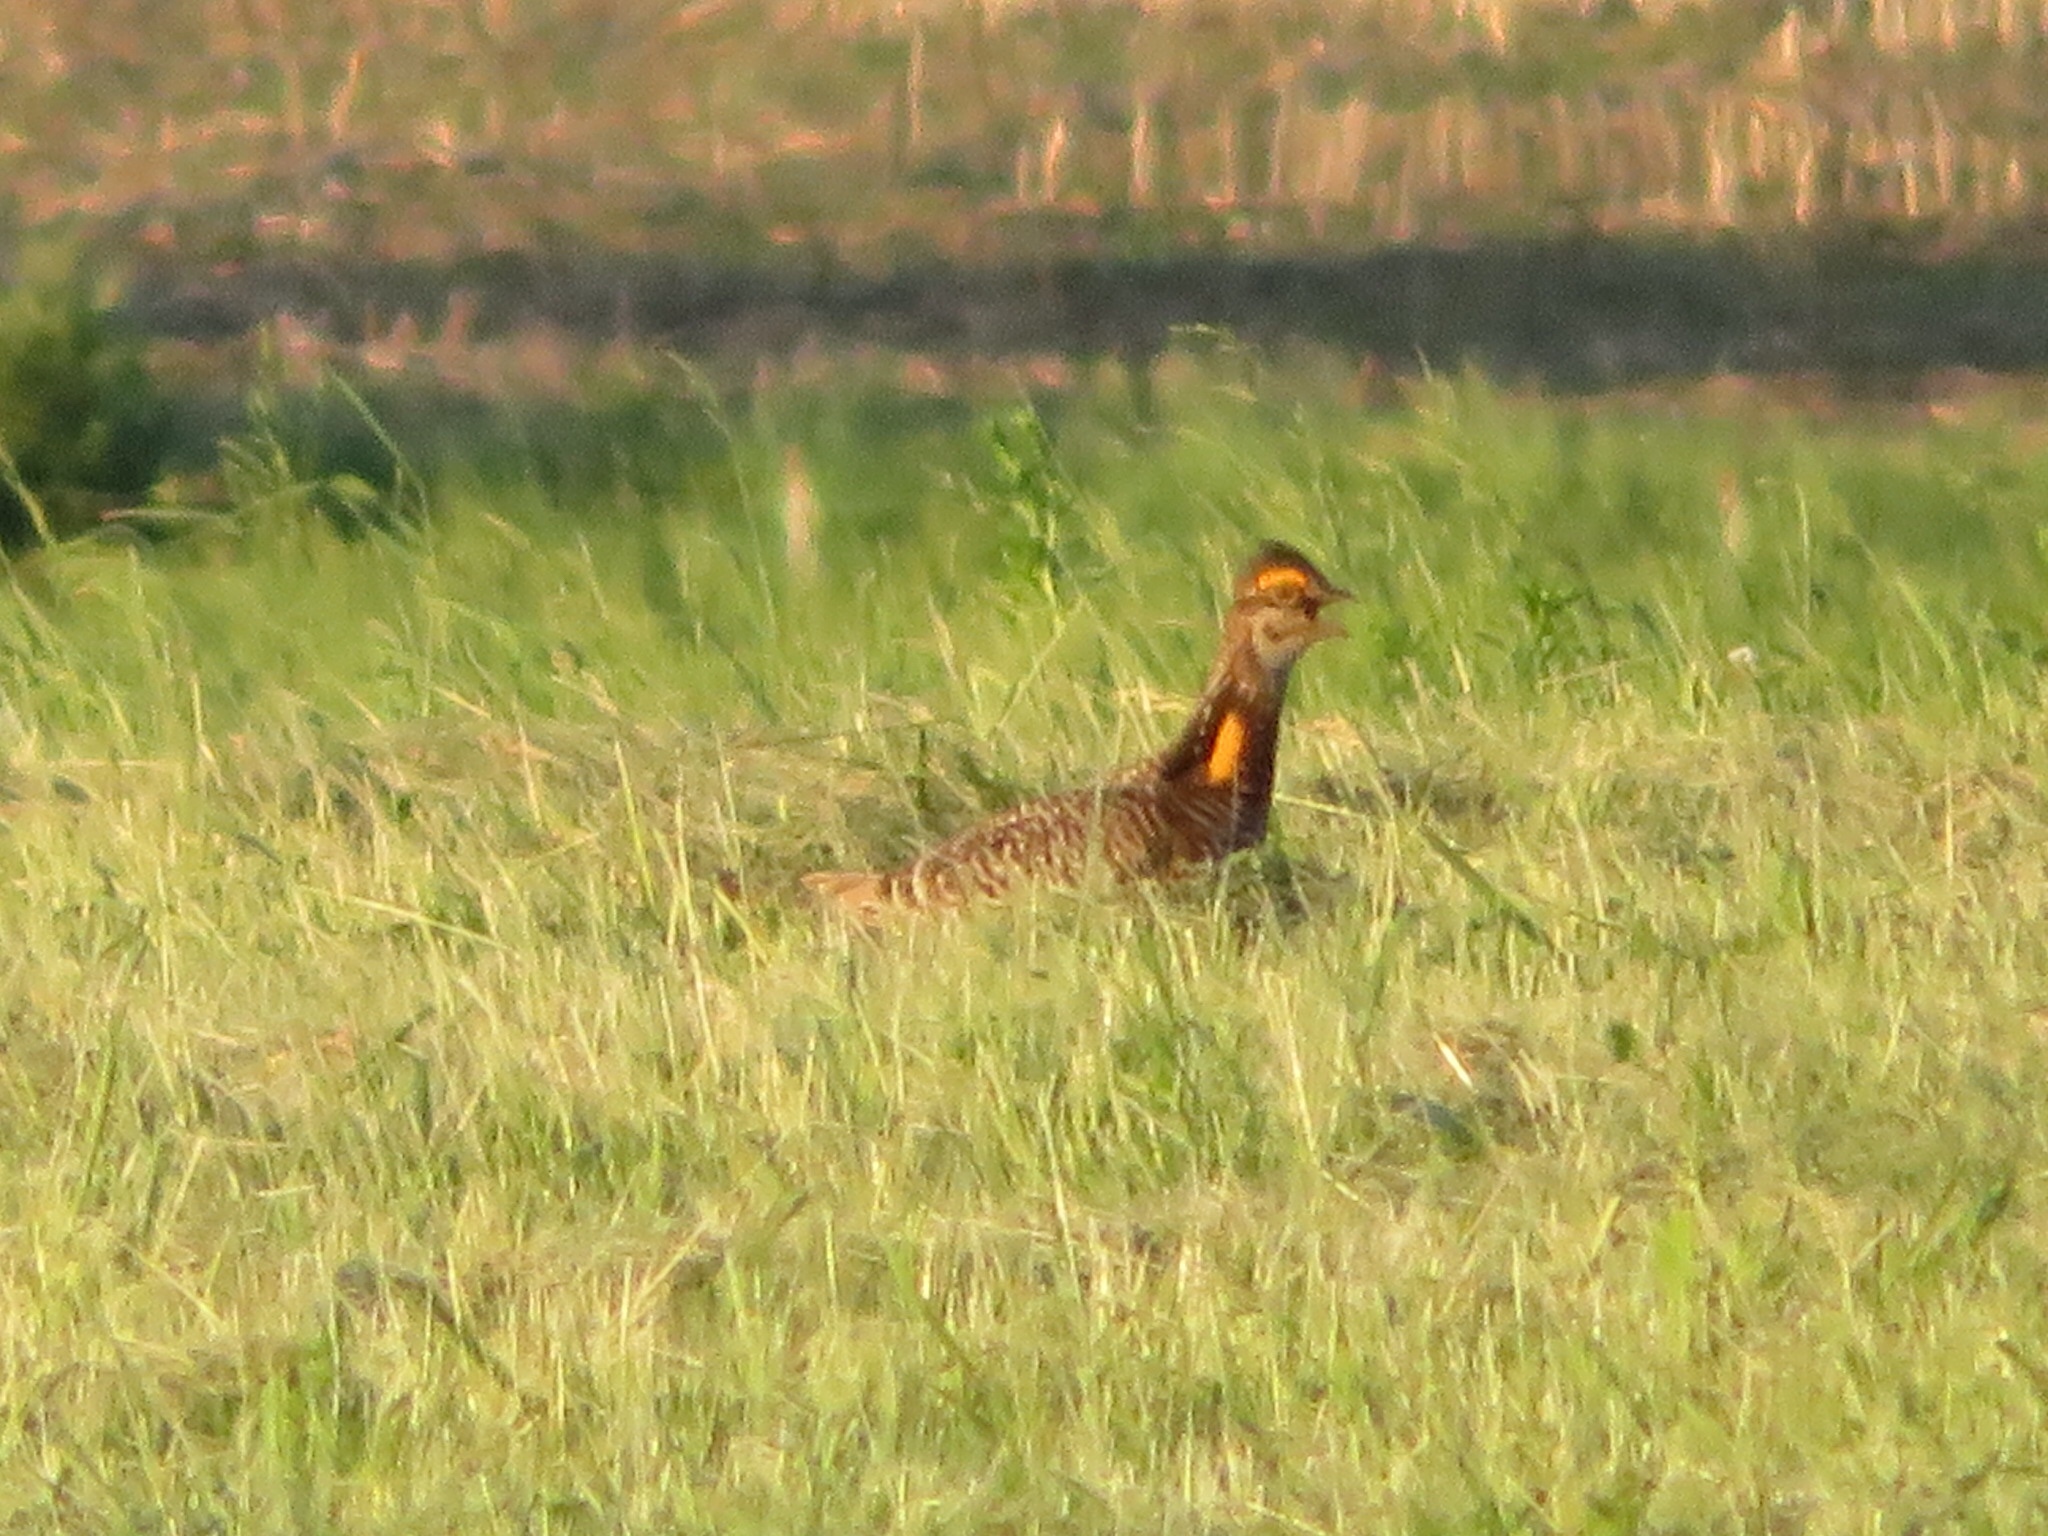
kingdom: Animalia
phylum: Chordata
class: Aves
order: Galliformes
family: Phasianidae
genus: Tympanuchus
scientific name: Tympanuchus cupido
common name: Greater prairie chicken
